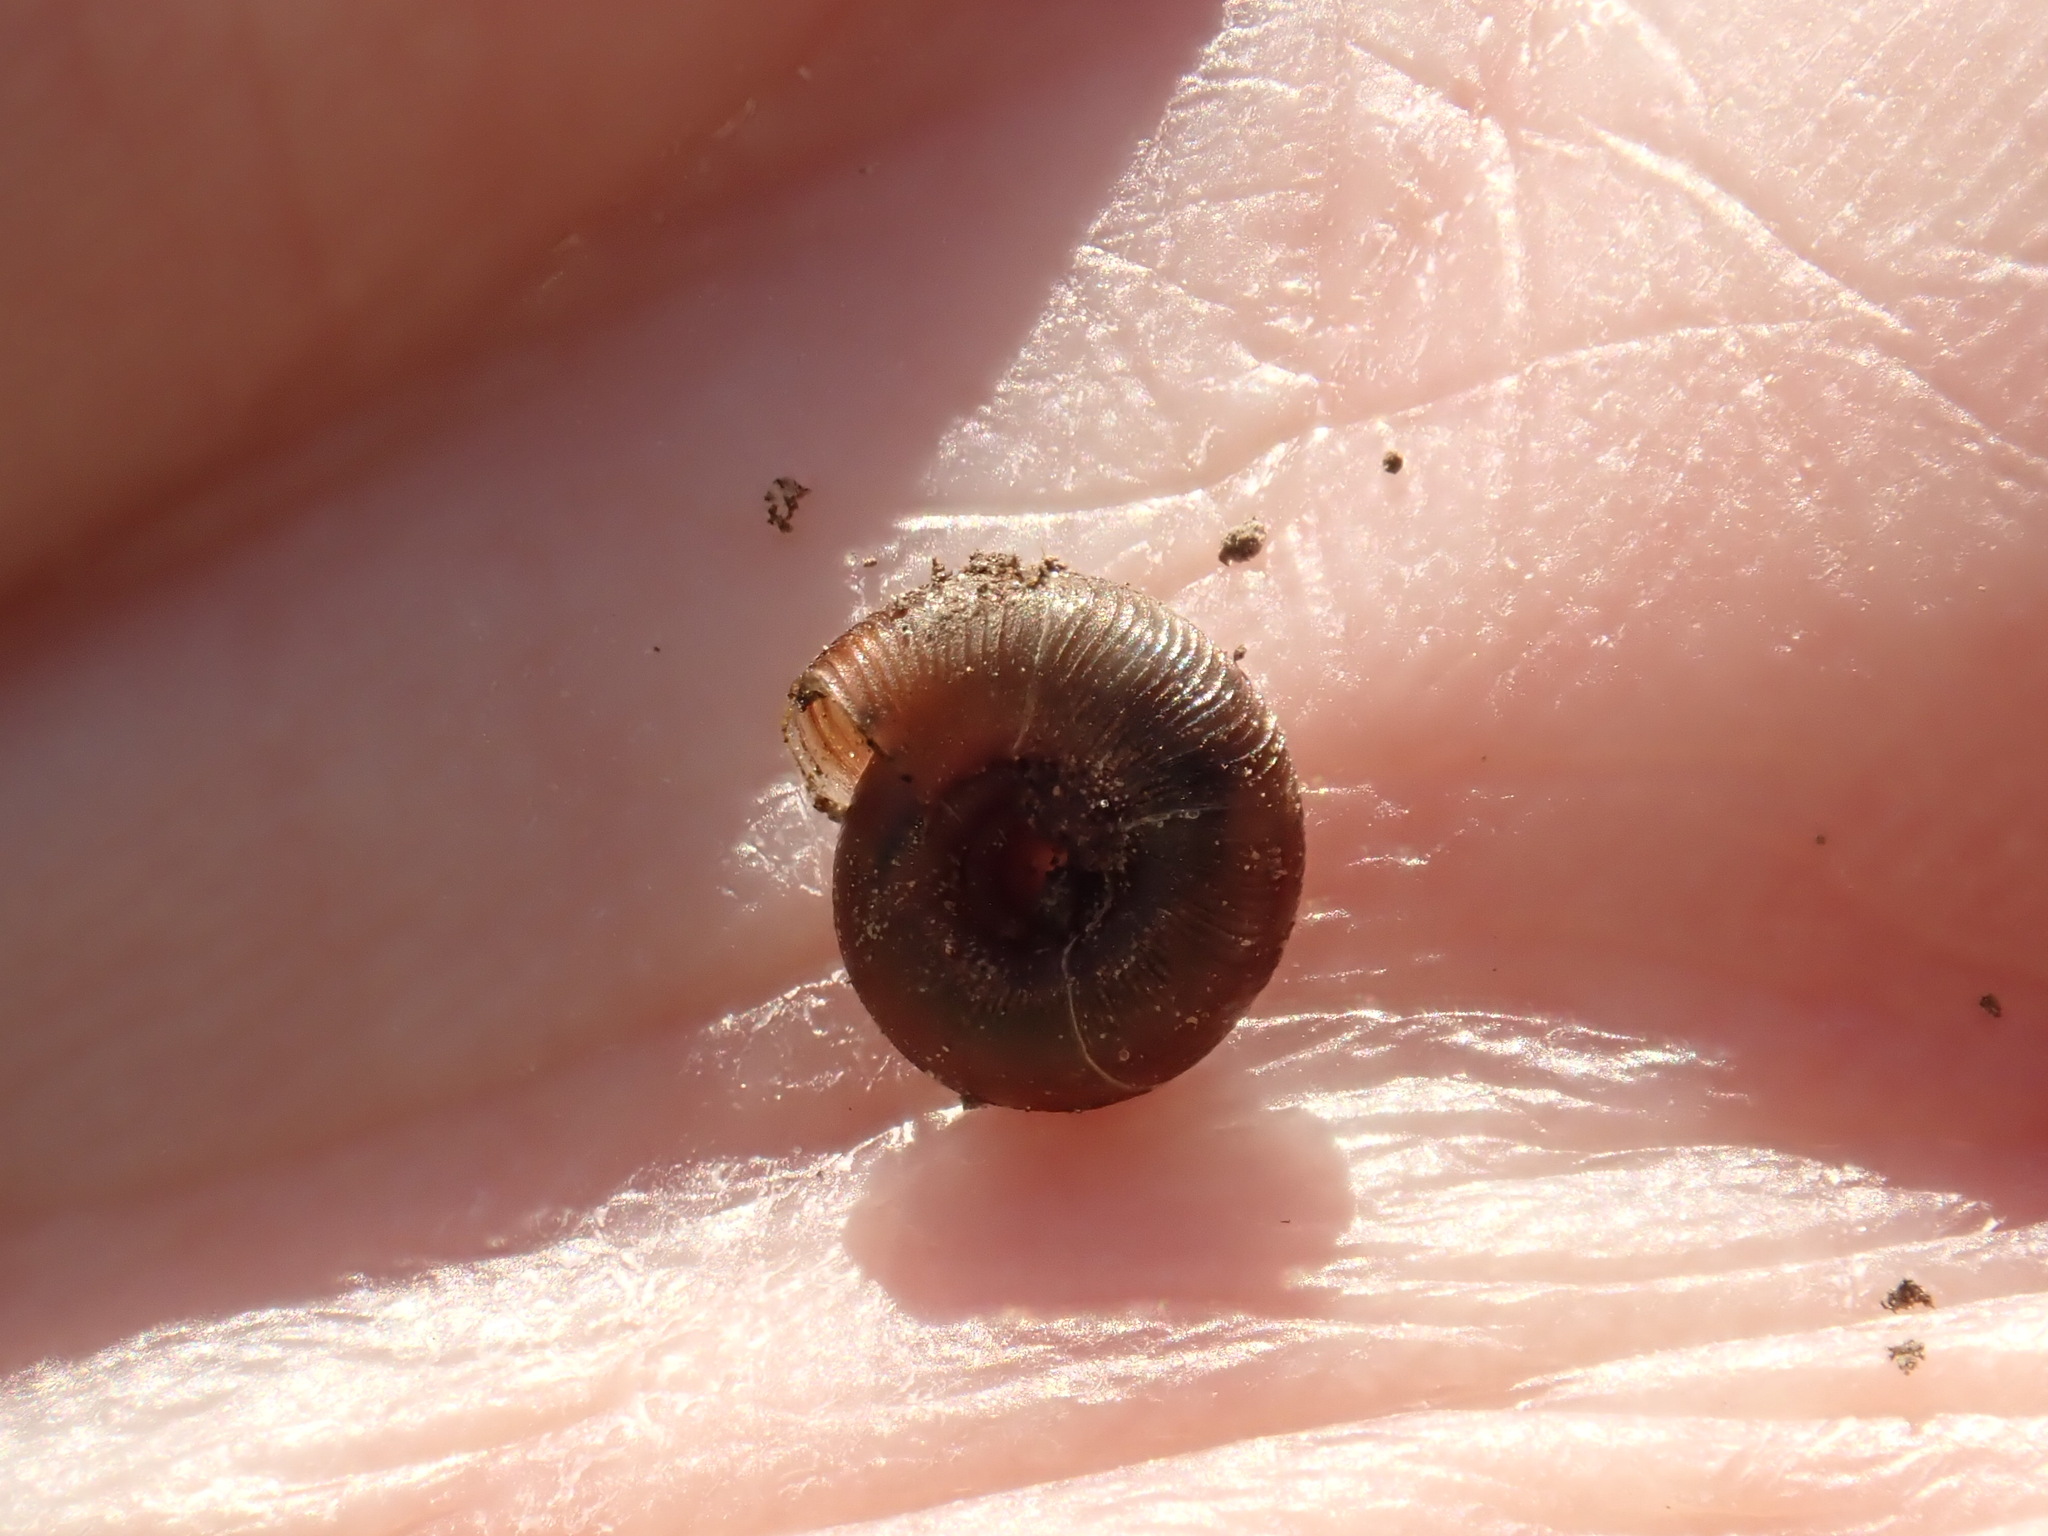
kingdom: Animalia
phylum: Mollusca
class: Gastropoda
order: Stylommatophora
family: Discidae
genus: Discus
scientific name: Discus rotundatus
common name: Rounded snail
